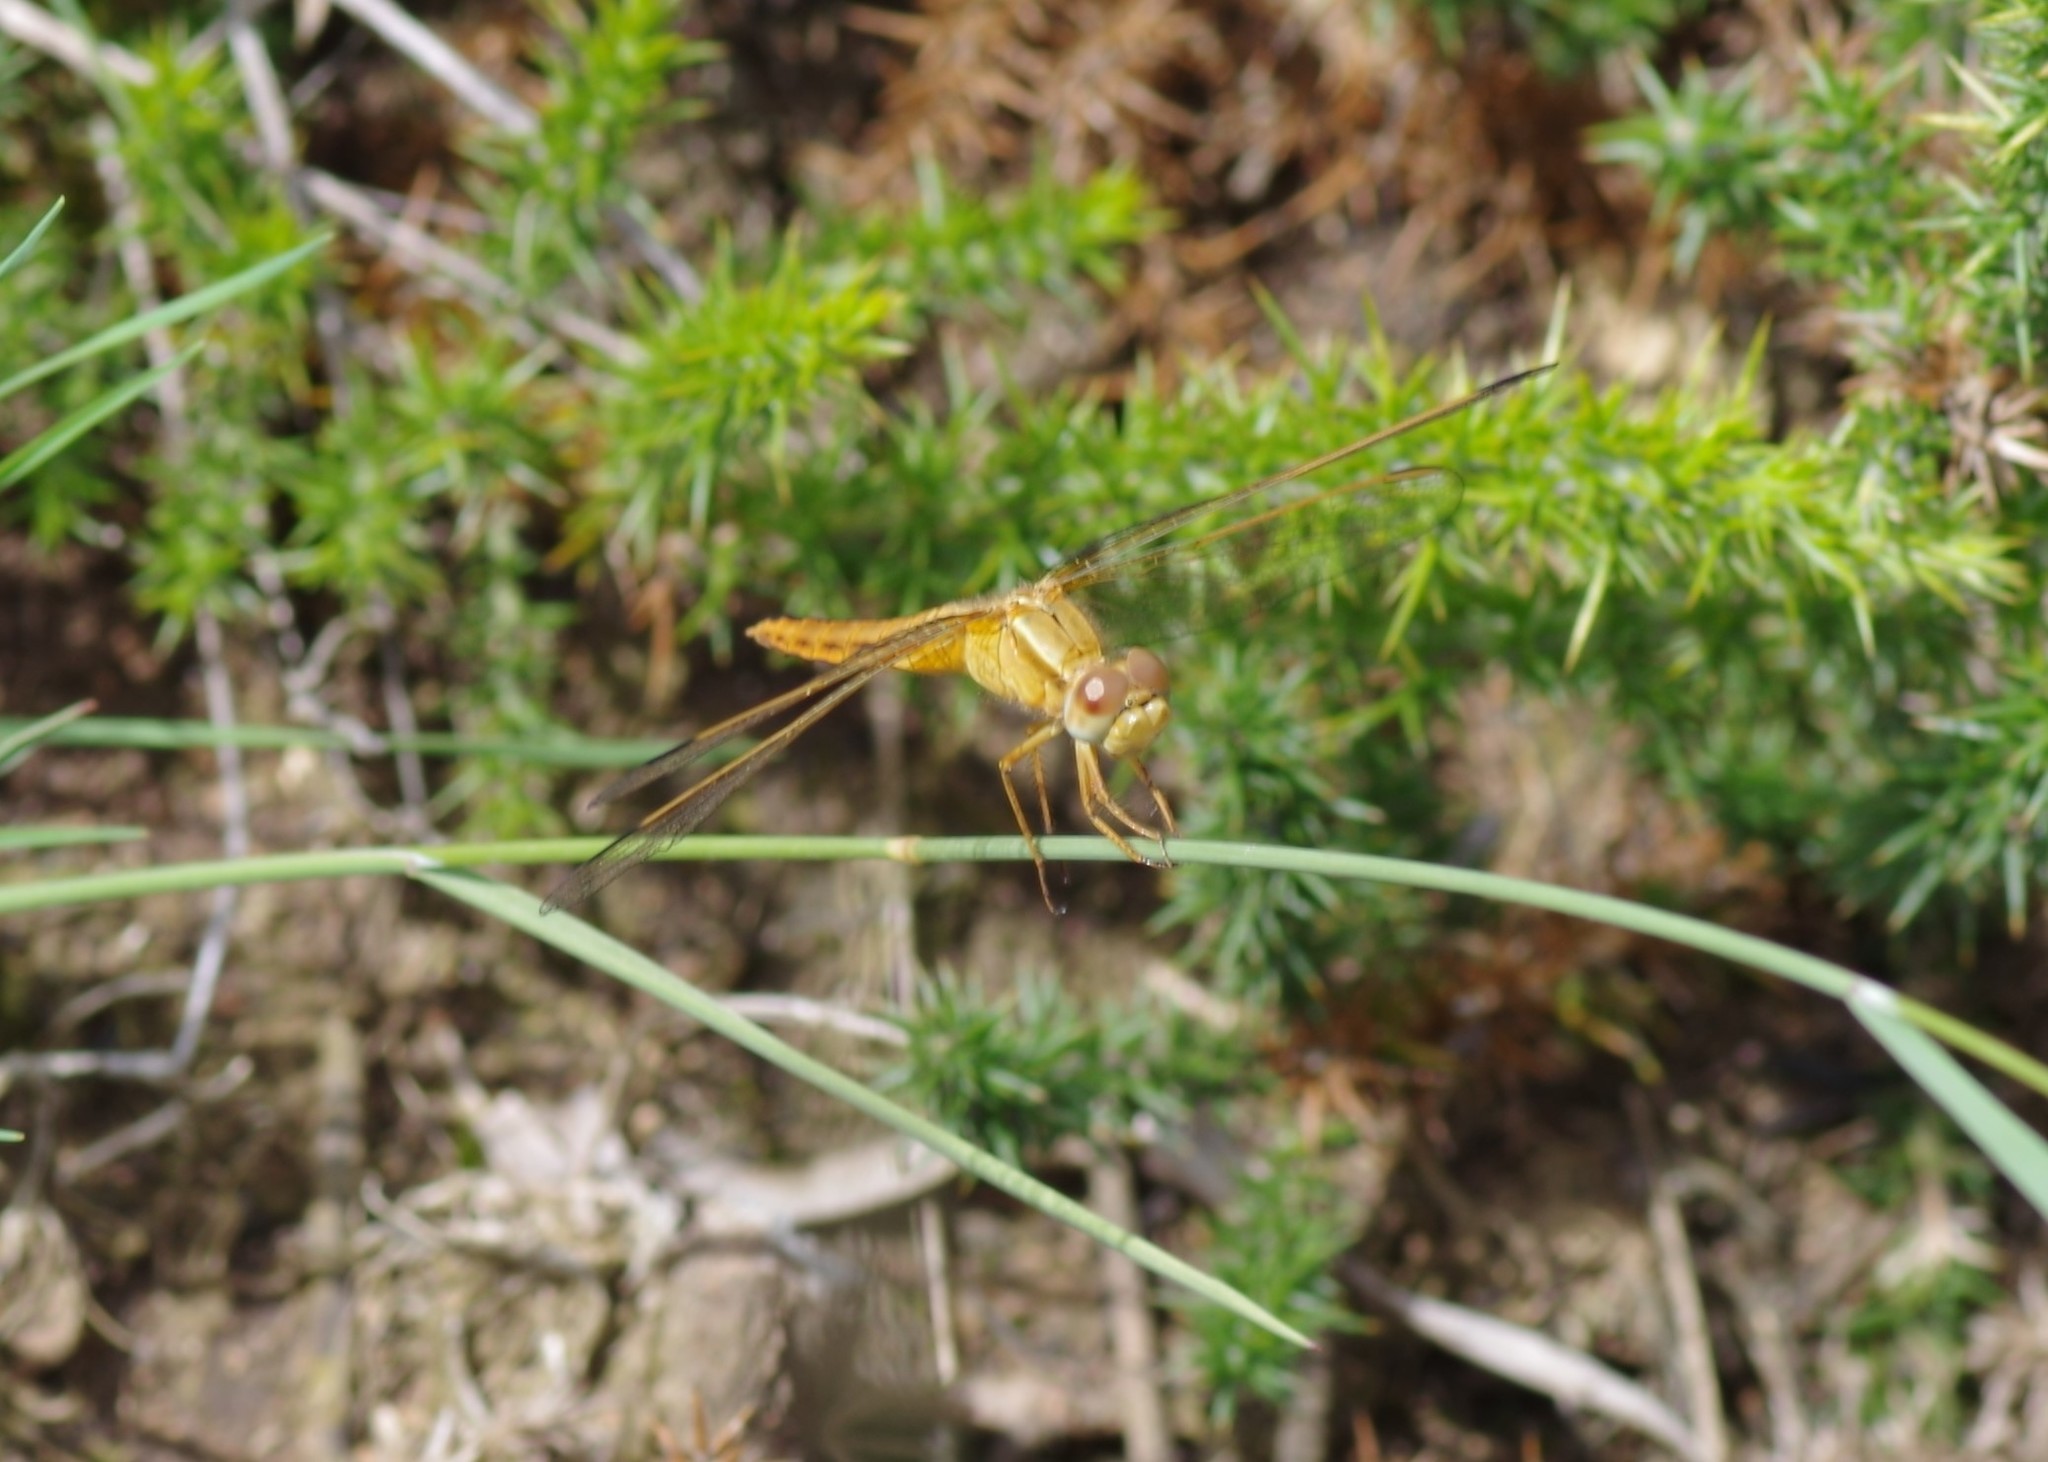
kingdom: Animalia
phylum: Arthropoda
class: Insecta
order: Odonata
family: Libellulidae
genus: Crocothemis
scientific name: Crocothemis erythraea
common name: Scarlet dragonfly
